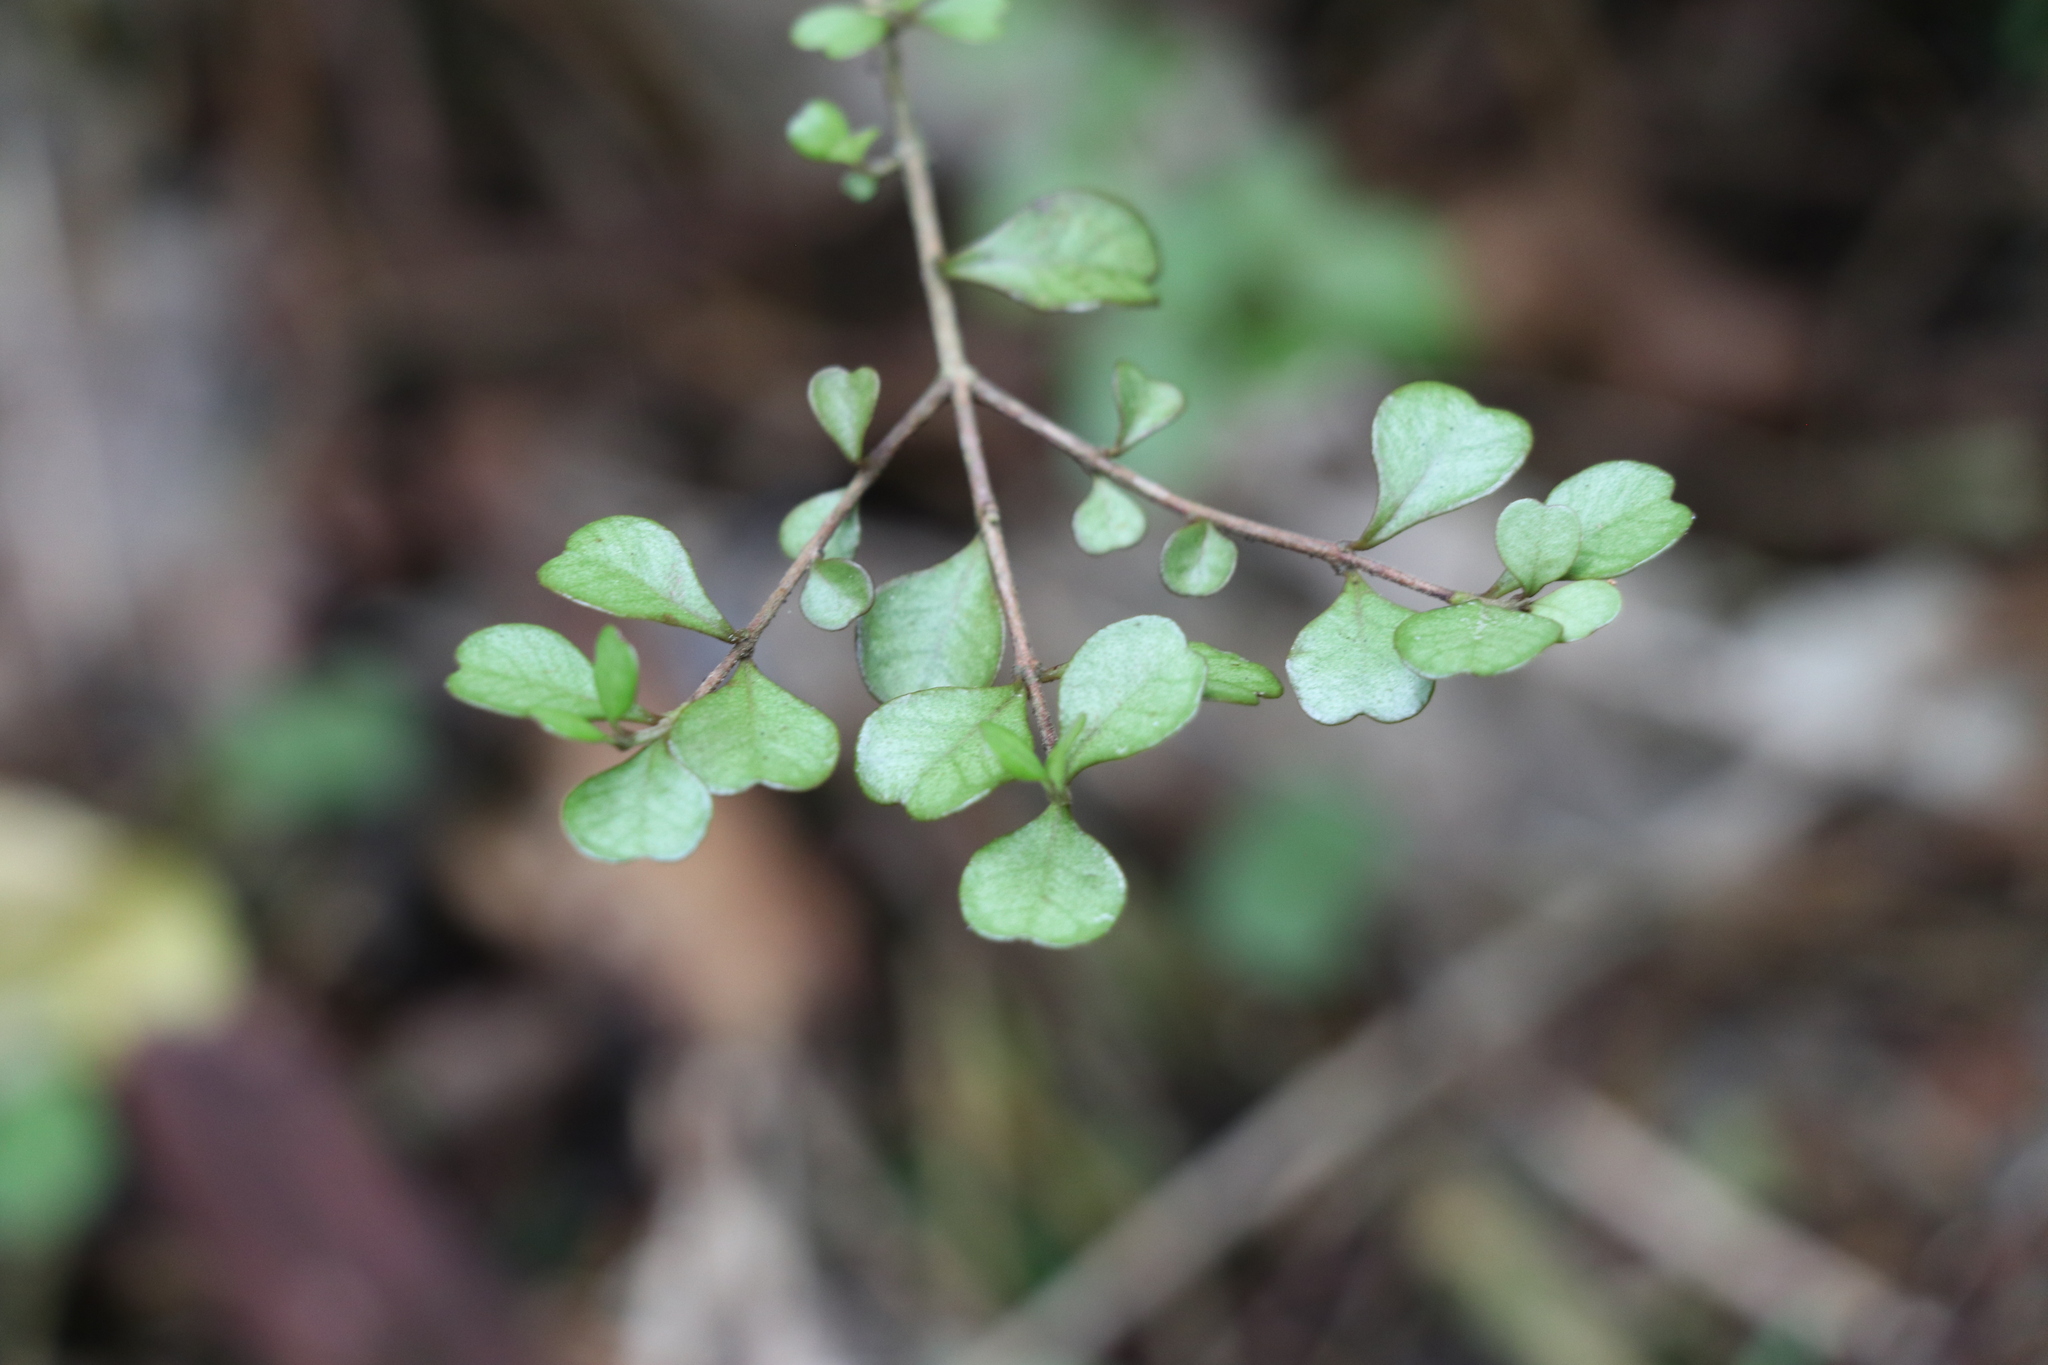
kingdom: Plantae
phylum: Tracheophyta
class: Magnoliopsida
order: Myrtales
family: Myrtaceae
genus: Lophomyrtus
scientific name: Lophomyrtus obcordata
